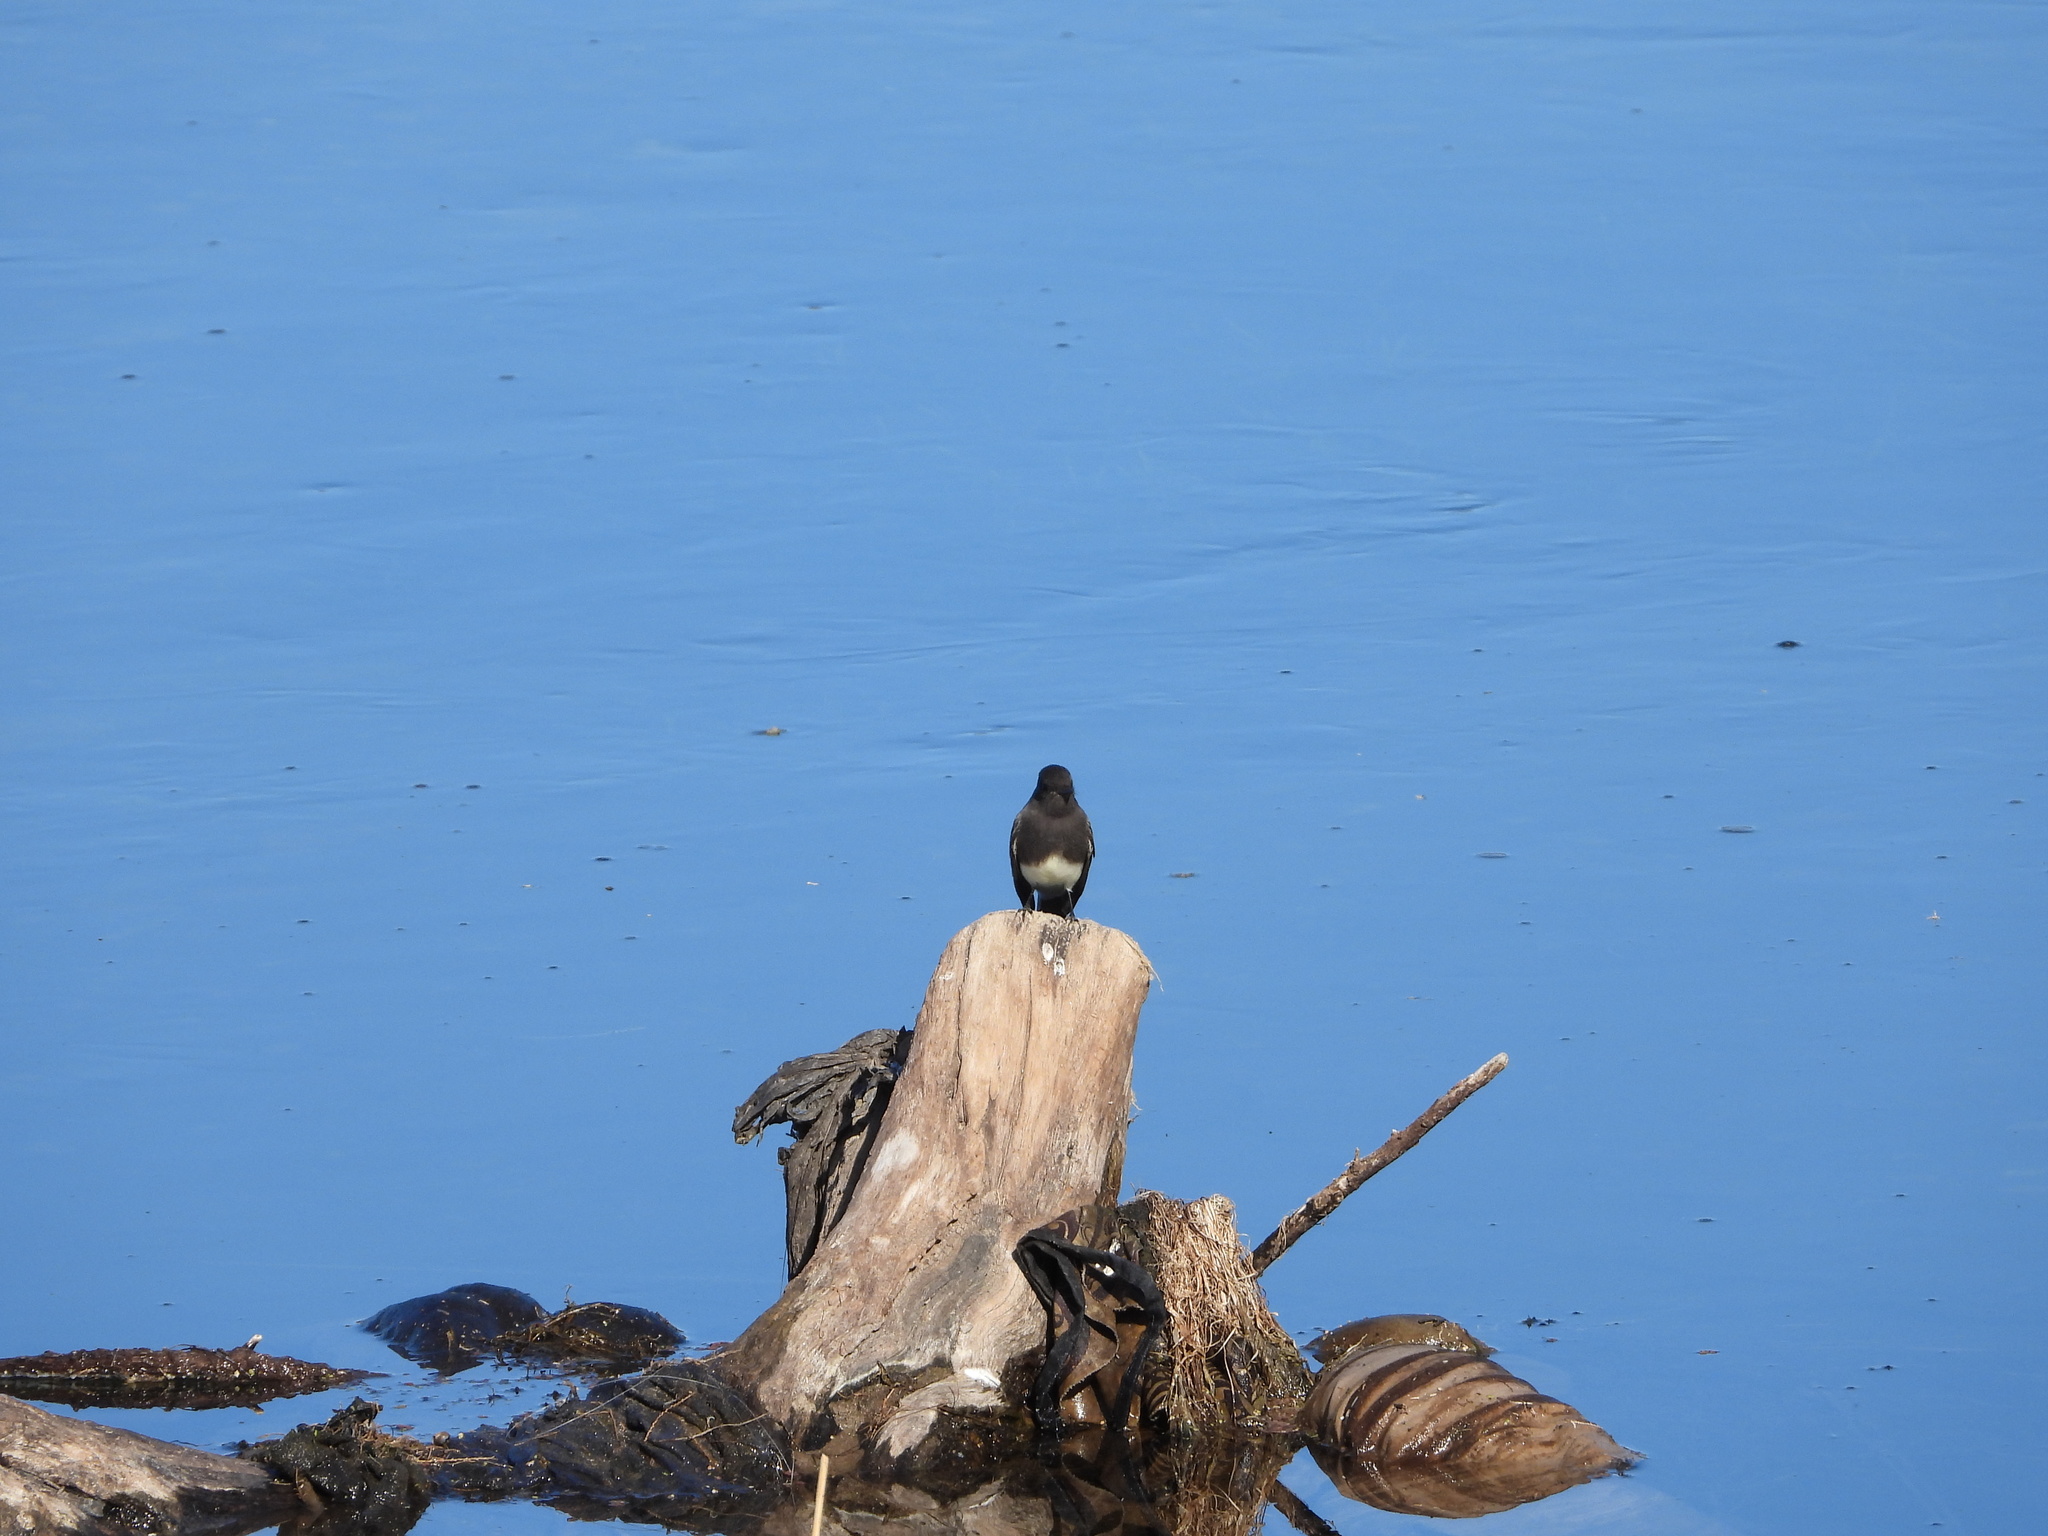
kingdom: Animalia
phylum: Chordata
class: Aves
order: Passeriformes
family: Tyrannidae
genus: Sayornis
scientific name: Sayornis nigricans
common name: Black phoebe
